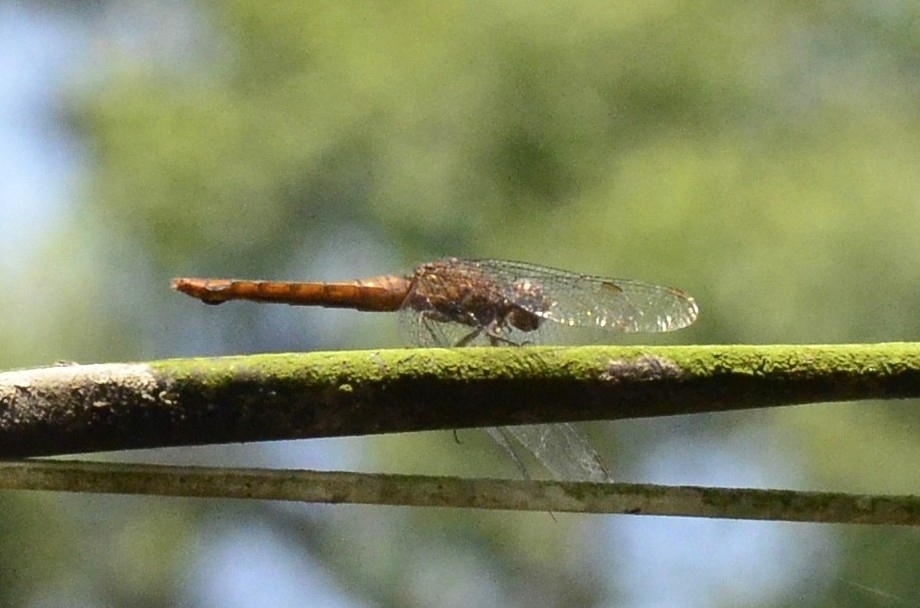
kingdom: Animalia
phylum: Arthropoda
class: Insecta
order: Odonata
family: Libellulidae
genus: Orthetrum
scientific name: Orthetrum chrysis
